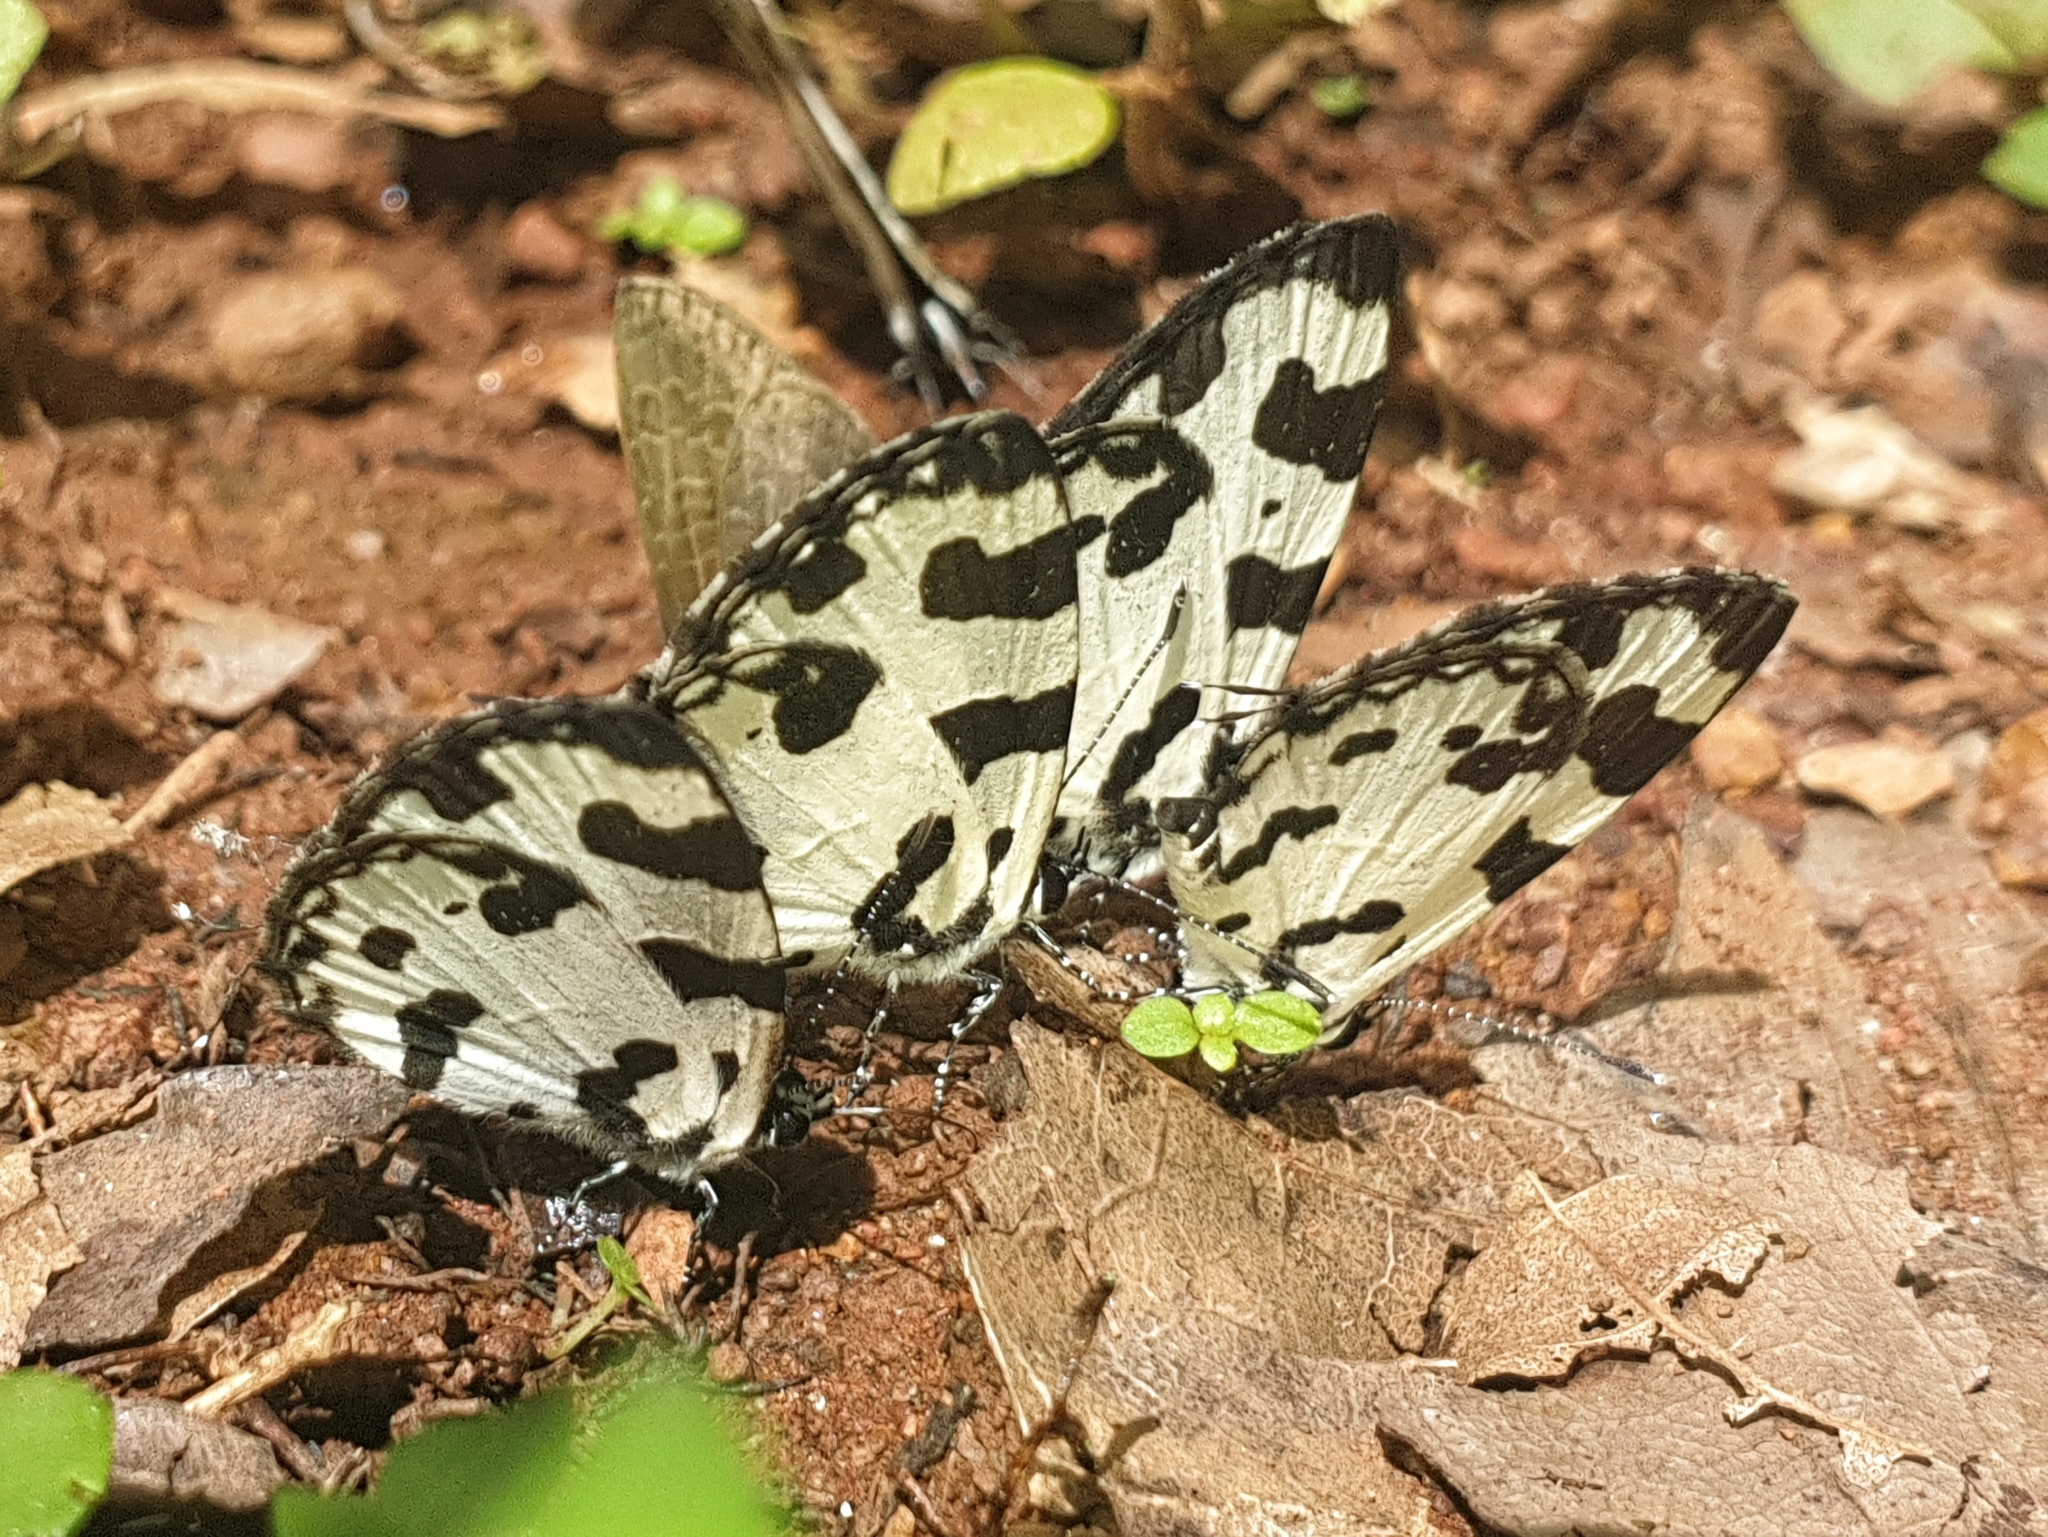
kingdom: Animalia
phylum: Arthropoda
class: Insecta
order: Lepidoptera
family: Lycaenidae
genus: Caleta
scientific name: Caleta decidia
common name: Angled pierrot
